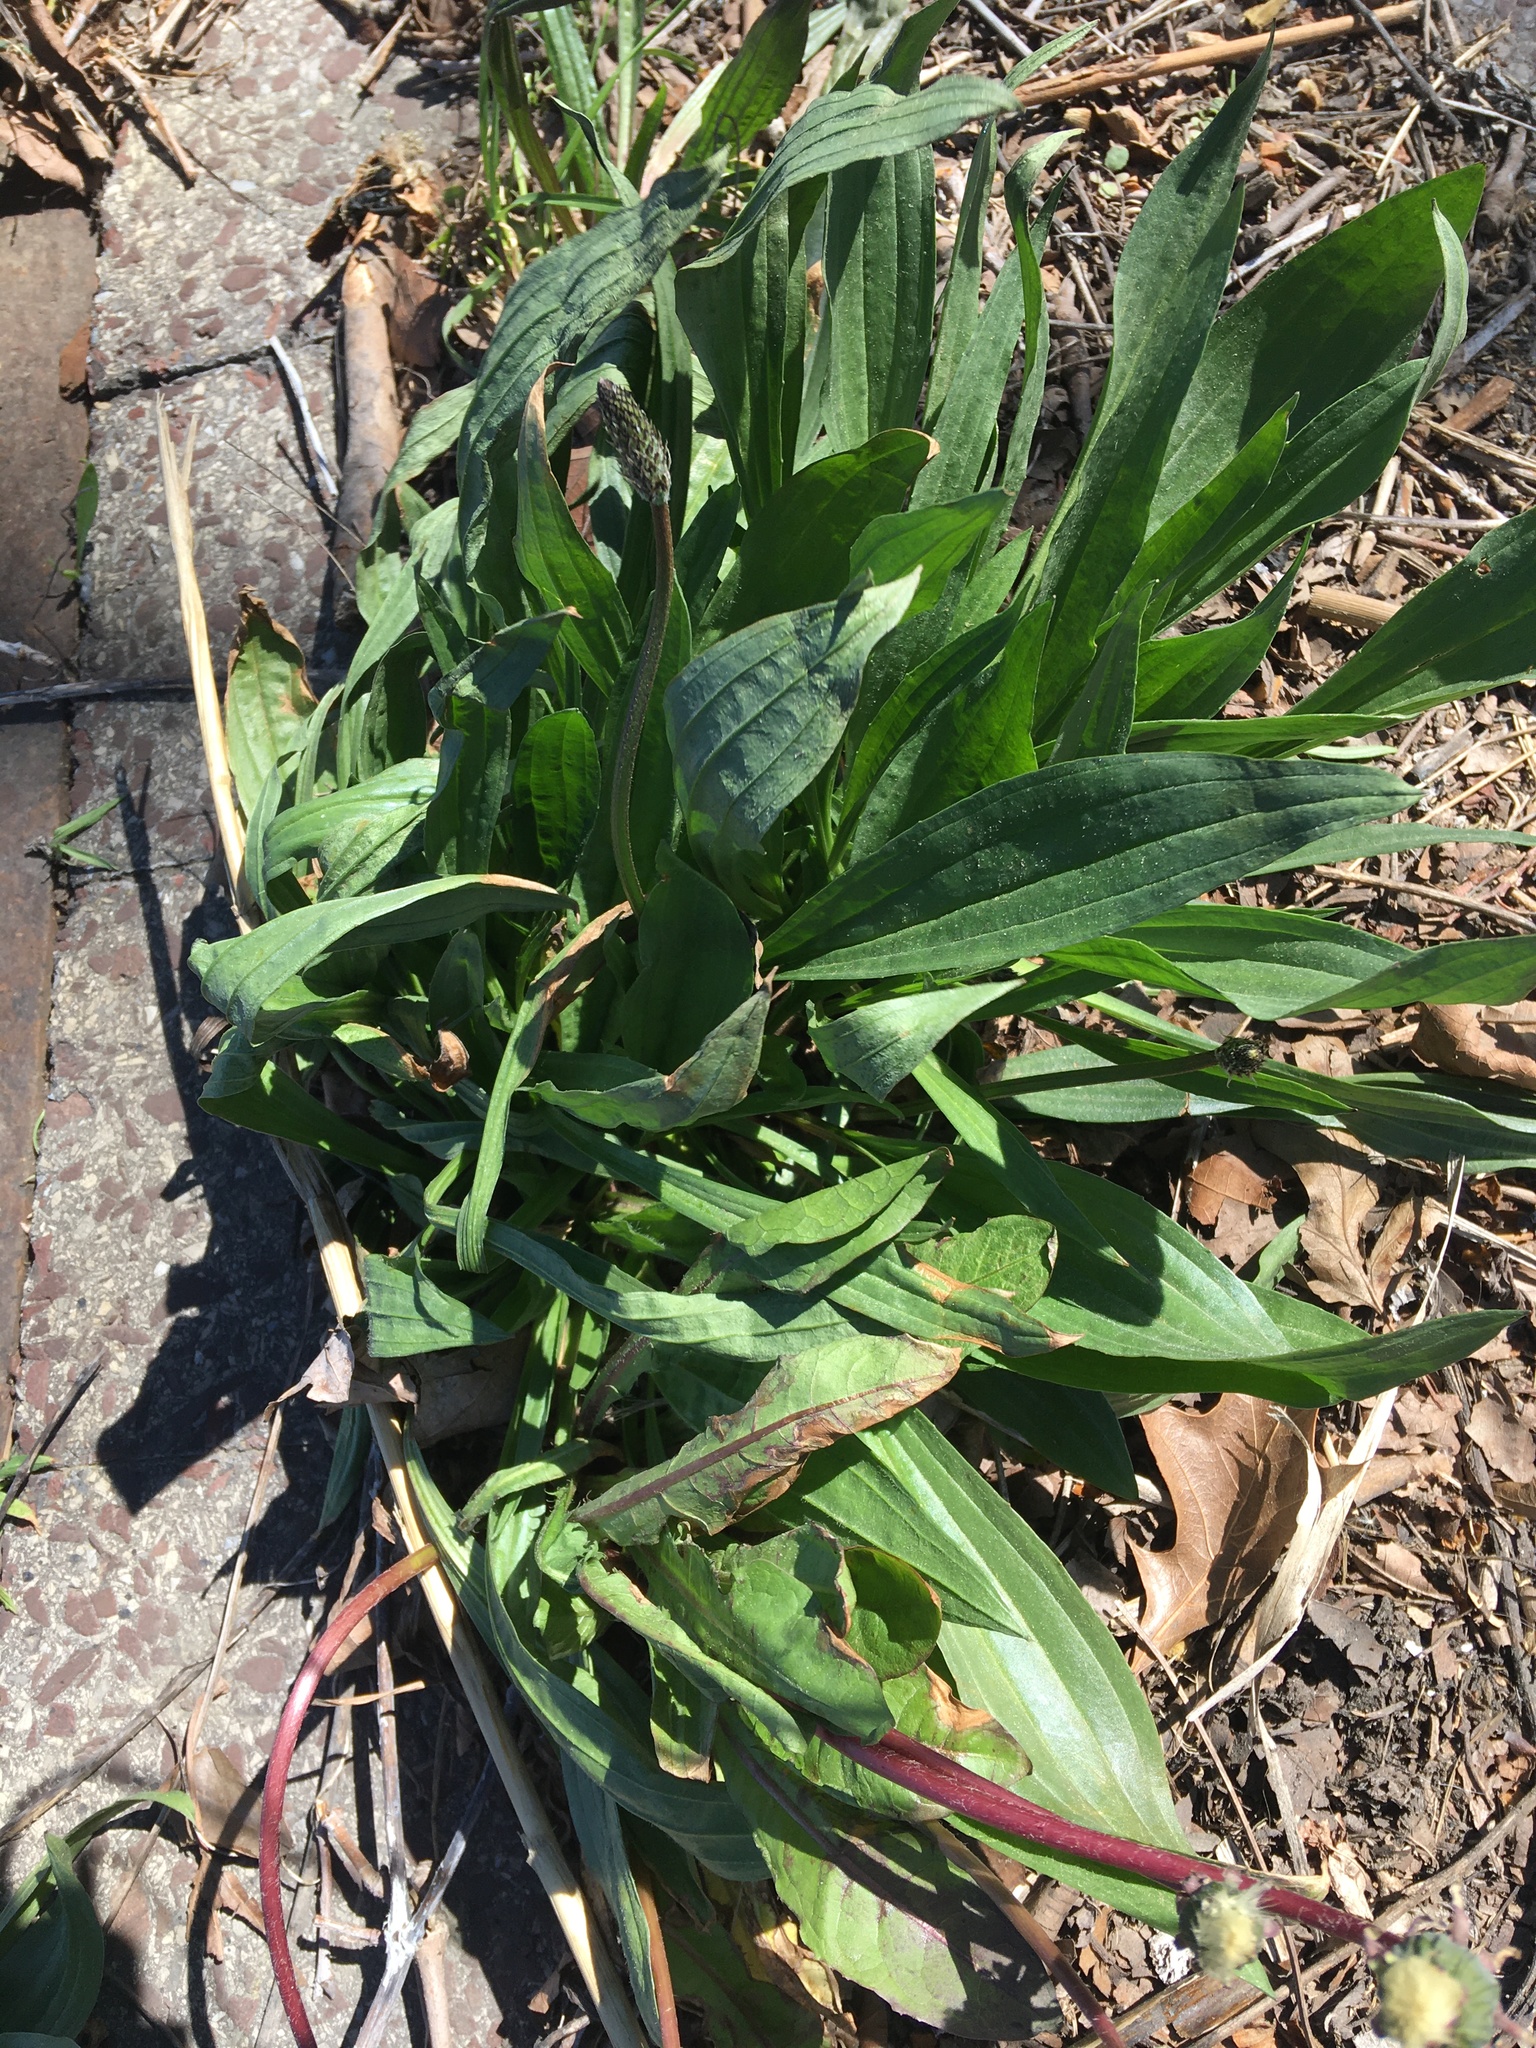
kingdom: Plantae
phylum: Tracheophyta
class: Magnoliopsida
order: Lamiales
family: Plantaginaceae
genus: Plantago
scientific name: Plantago lanceolata
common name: Ribwort plantain
